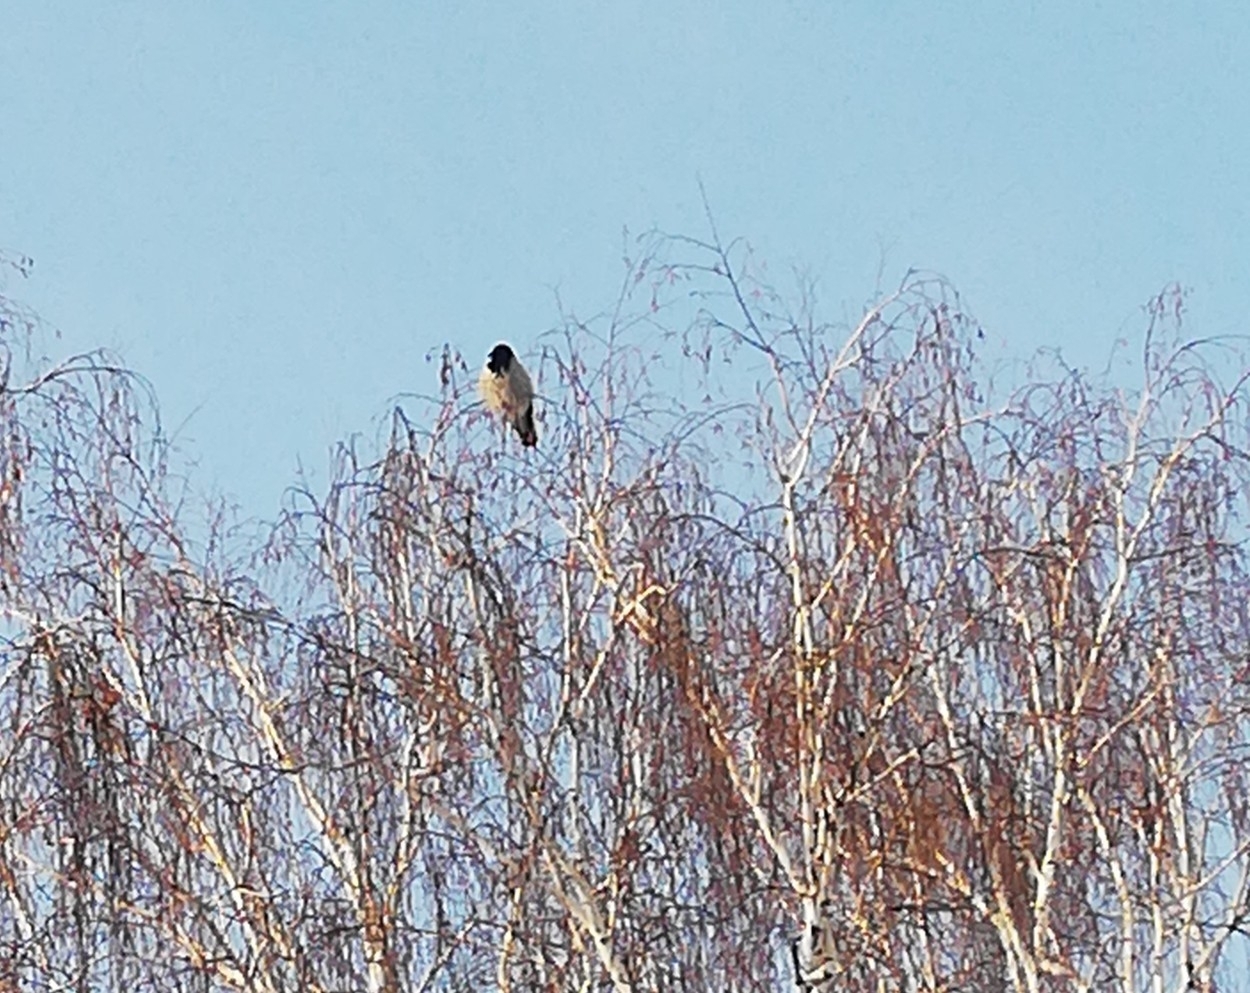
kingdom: Animalia
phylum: Chordata
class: Aves
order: Passeriformes
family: Corvidae
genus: Corvus
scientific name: Corvus cornix
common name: Hooded crow
